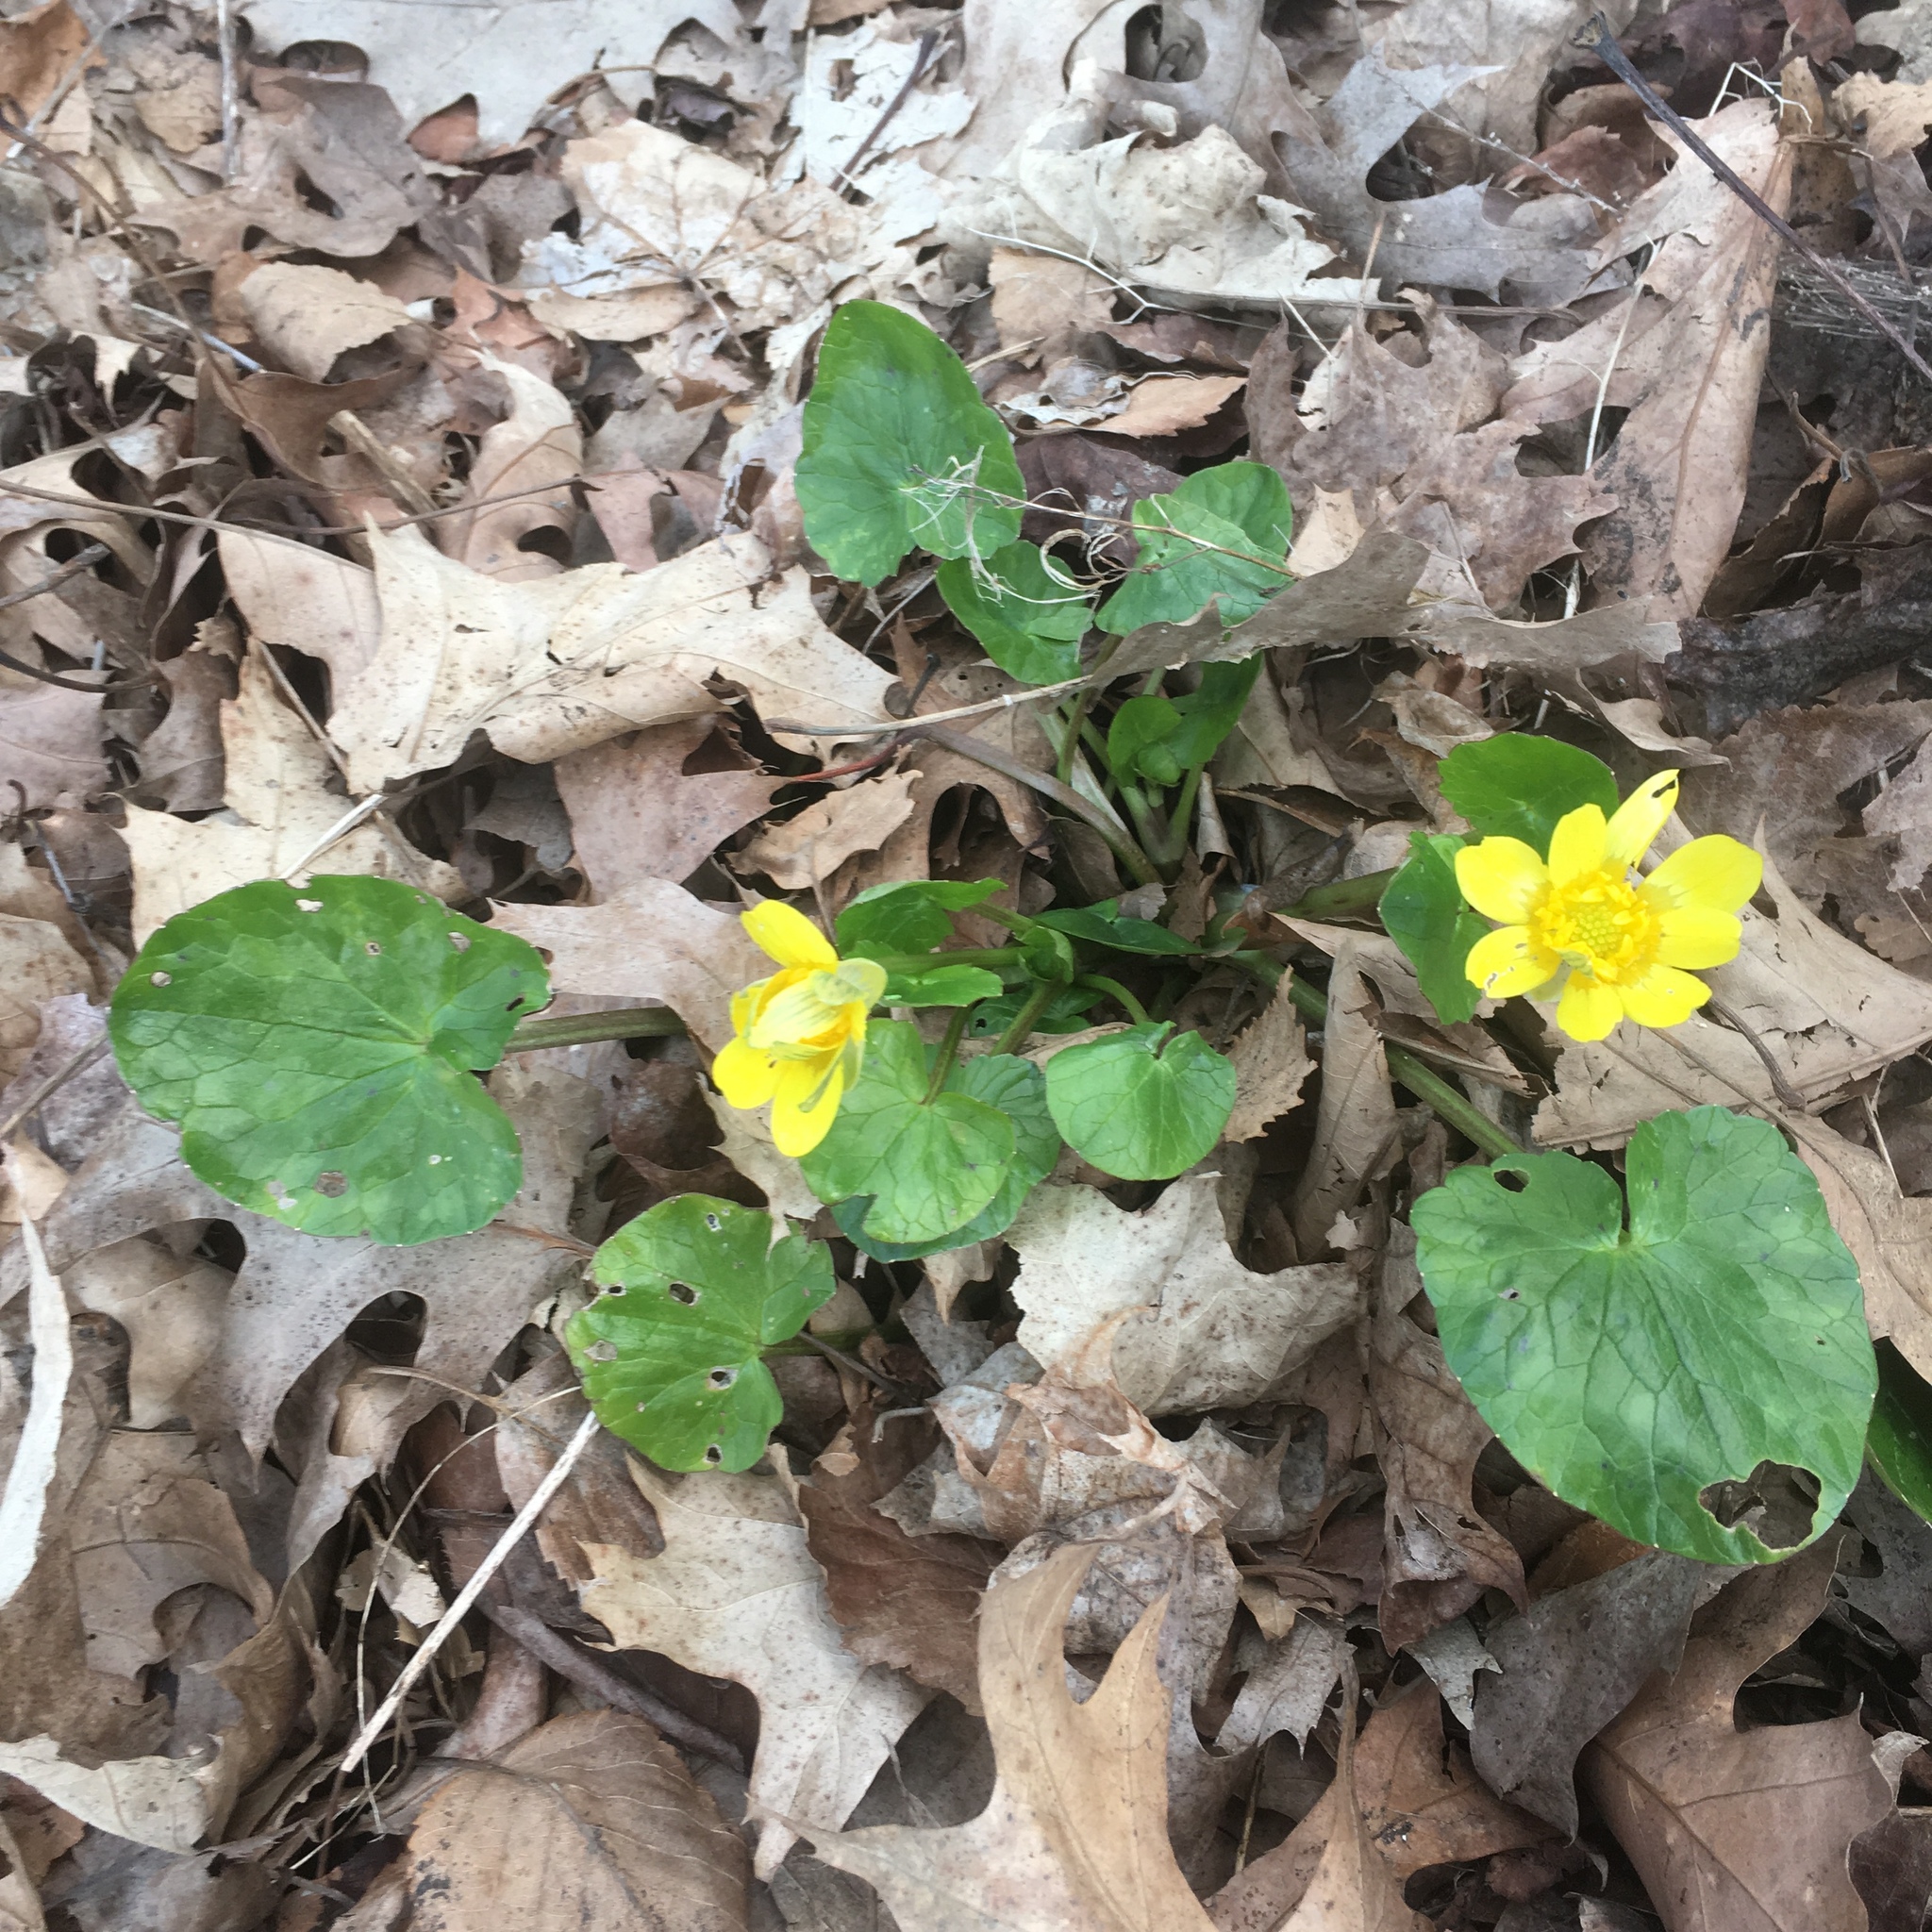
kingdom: Plantae
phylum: Tracheophyta
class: Magnoliopsida
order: Ranunculales
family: Ranunculaceae
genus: Ficaria
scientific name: Ficaria verna
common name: Lesser celandine
